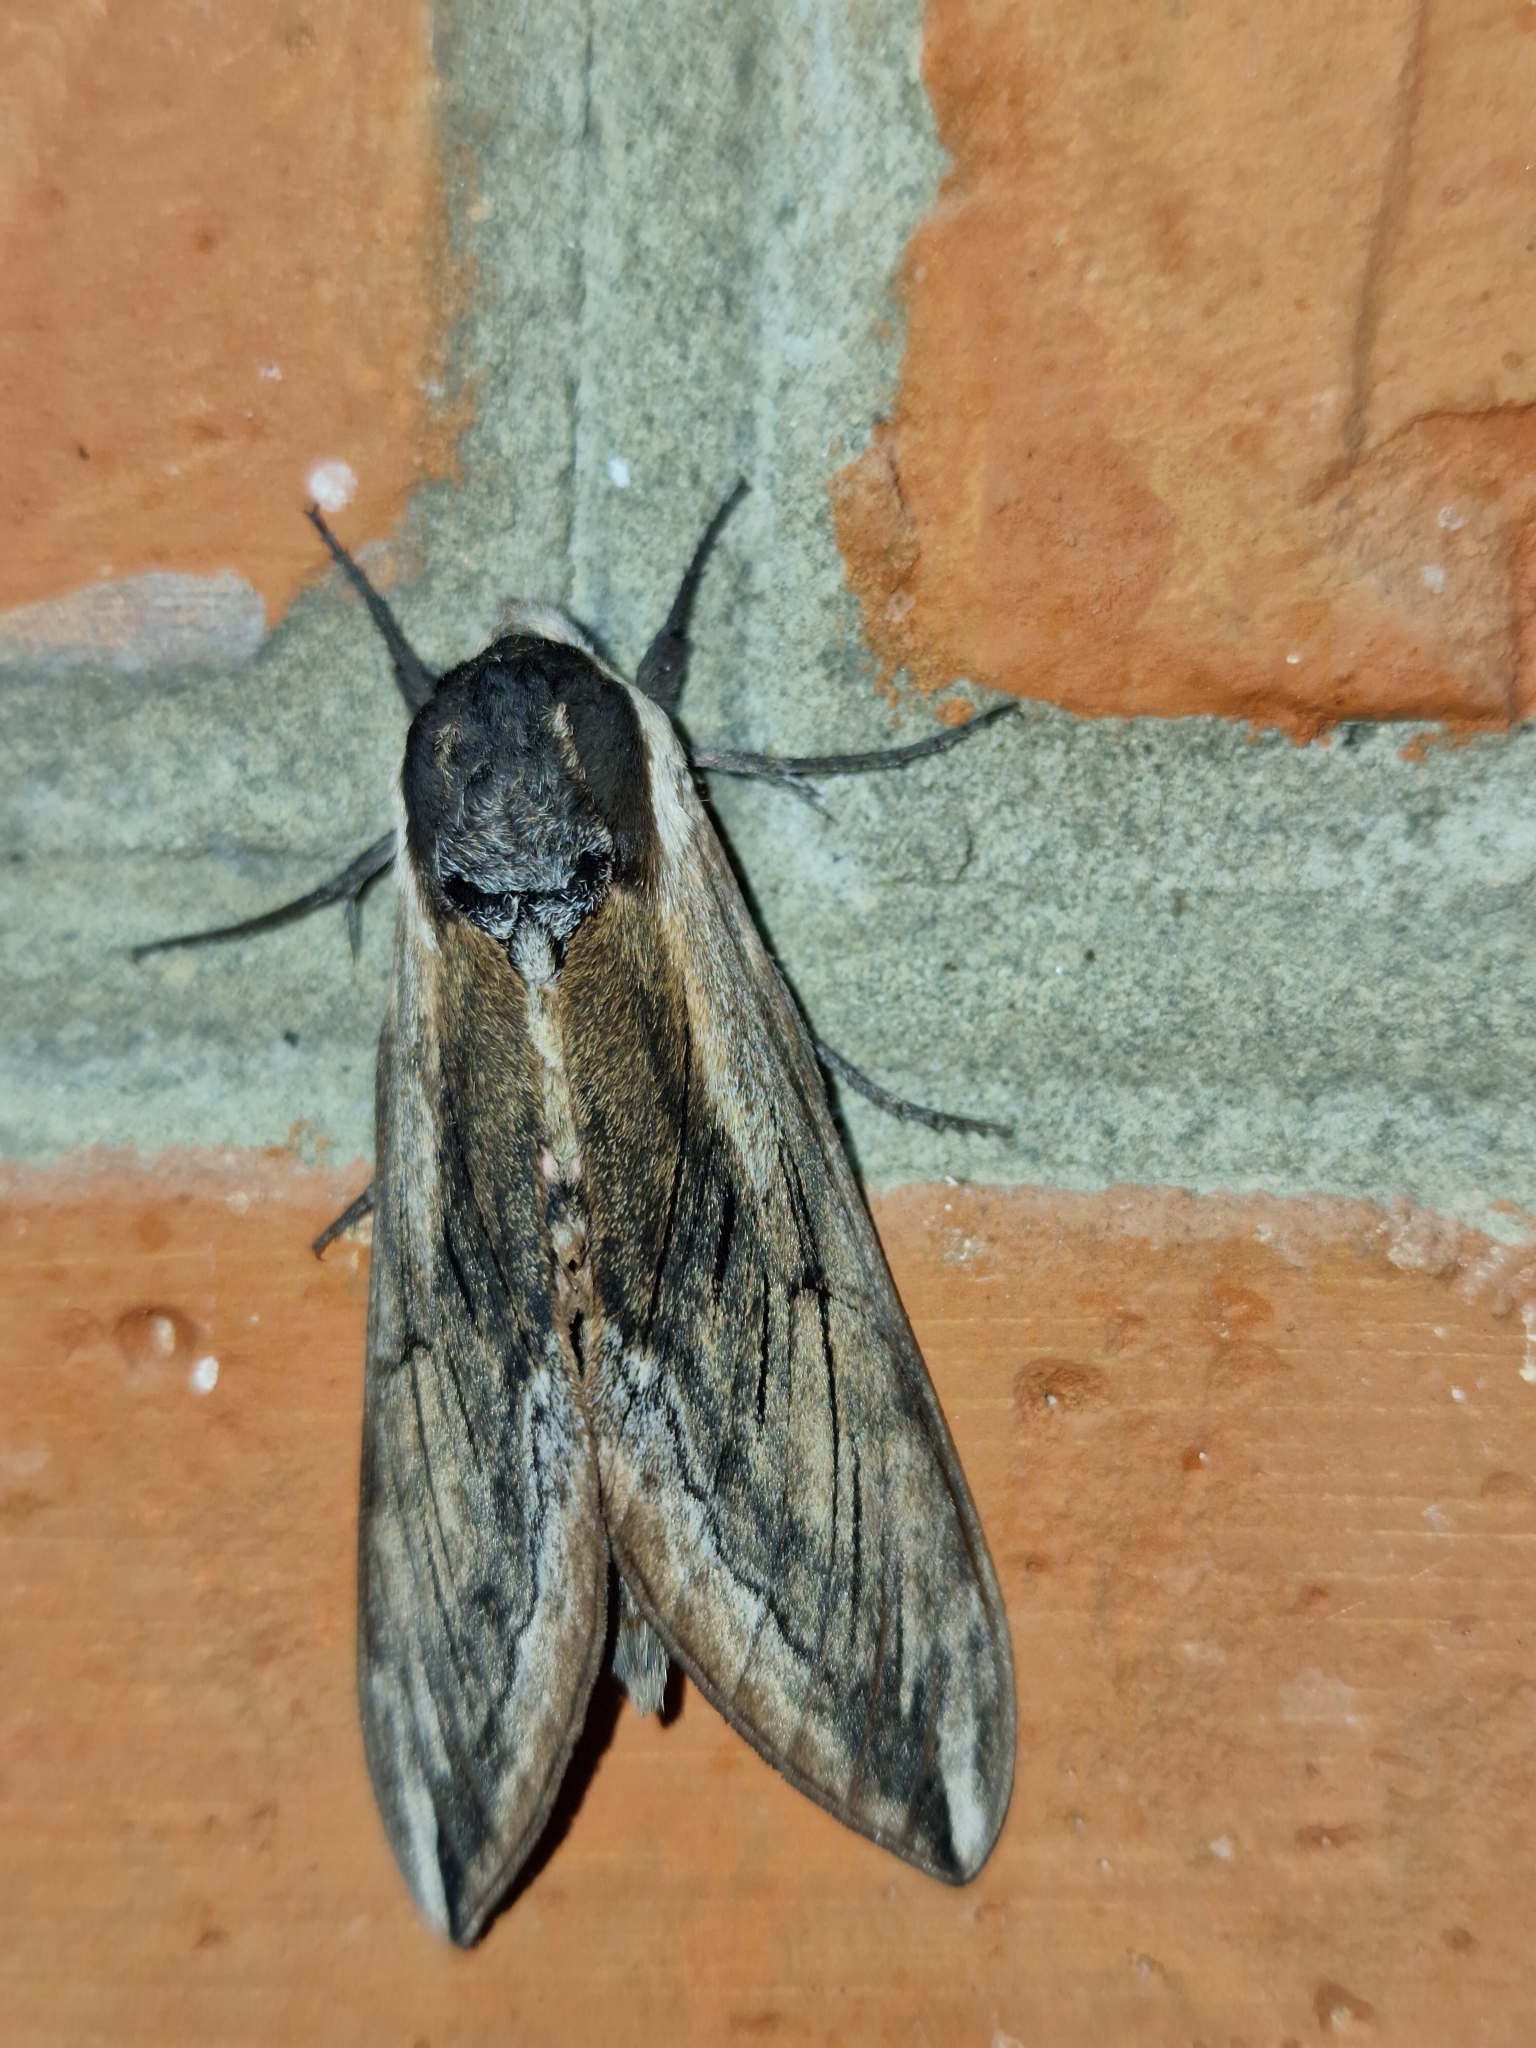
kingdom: Animalia
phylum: Arthropoda
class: Insecta
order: Lepidoptera
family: Sphingidae
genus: Sphinx
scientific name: Sphinx ligustri
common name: Privet hawk-moth
